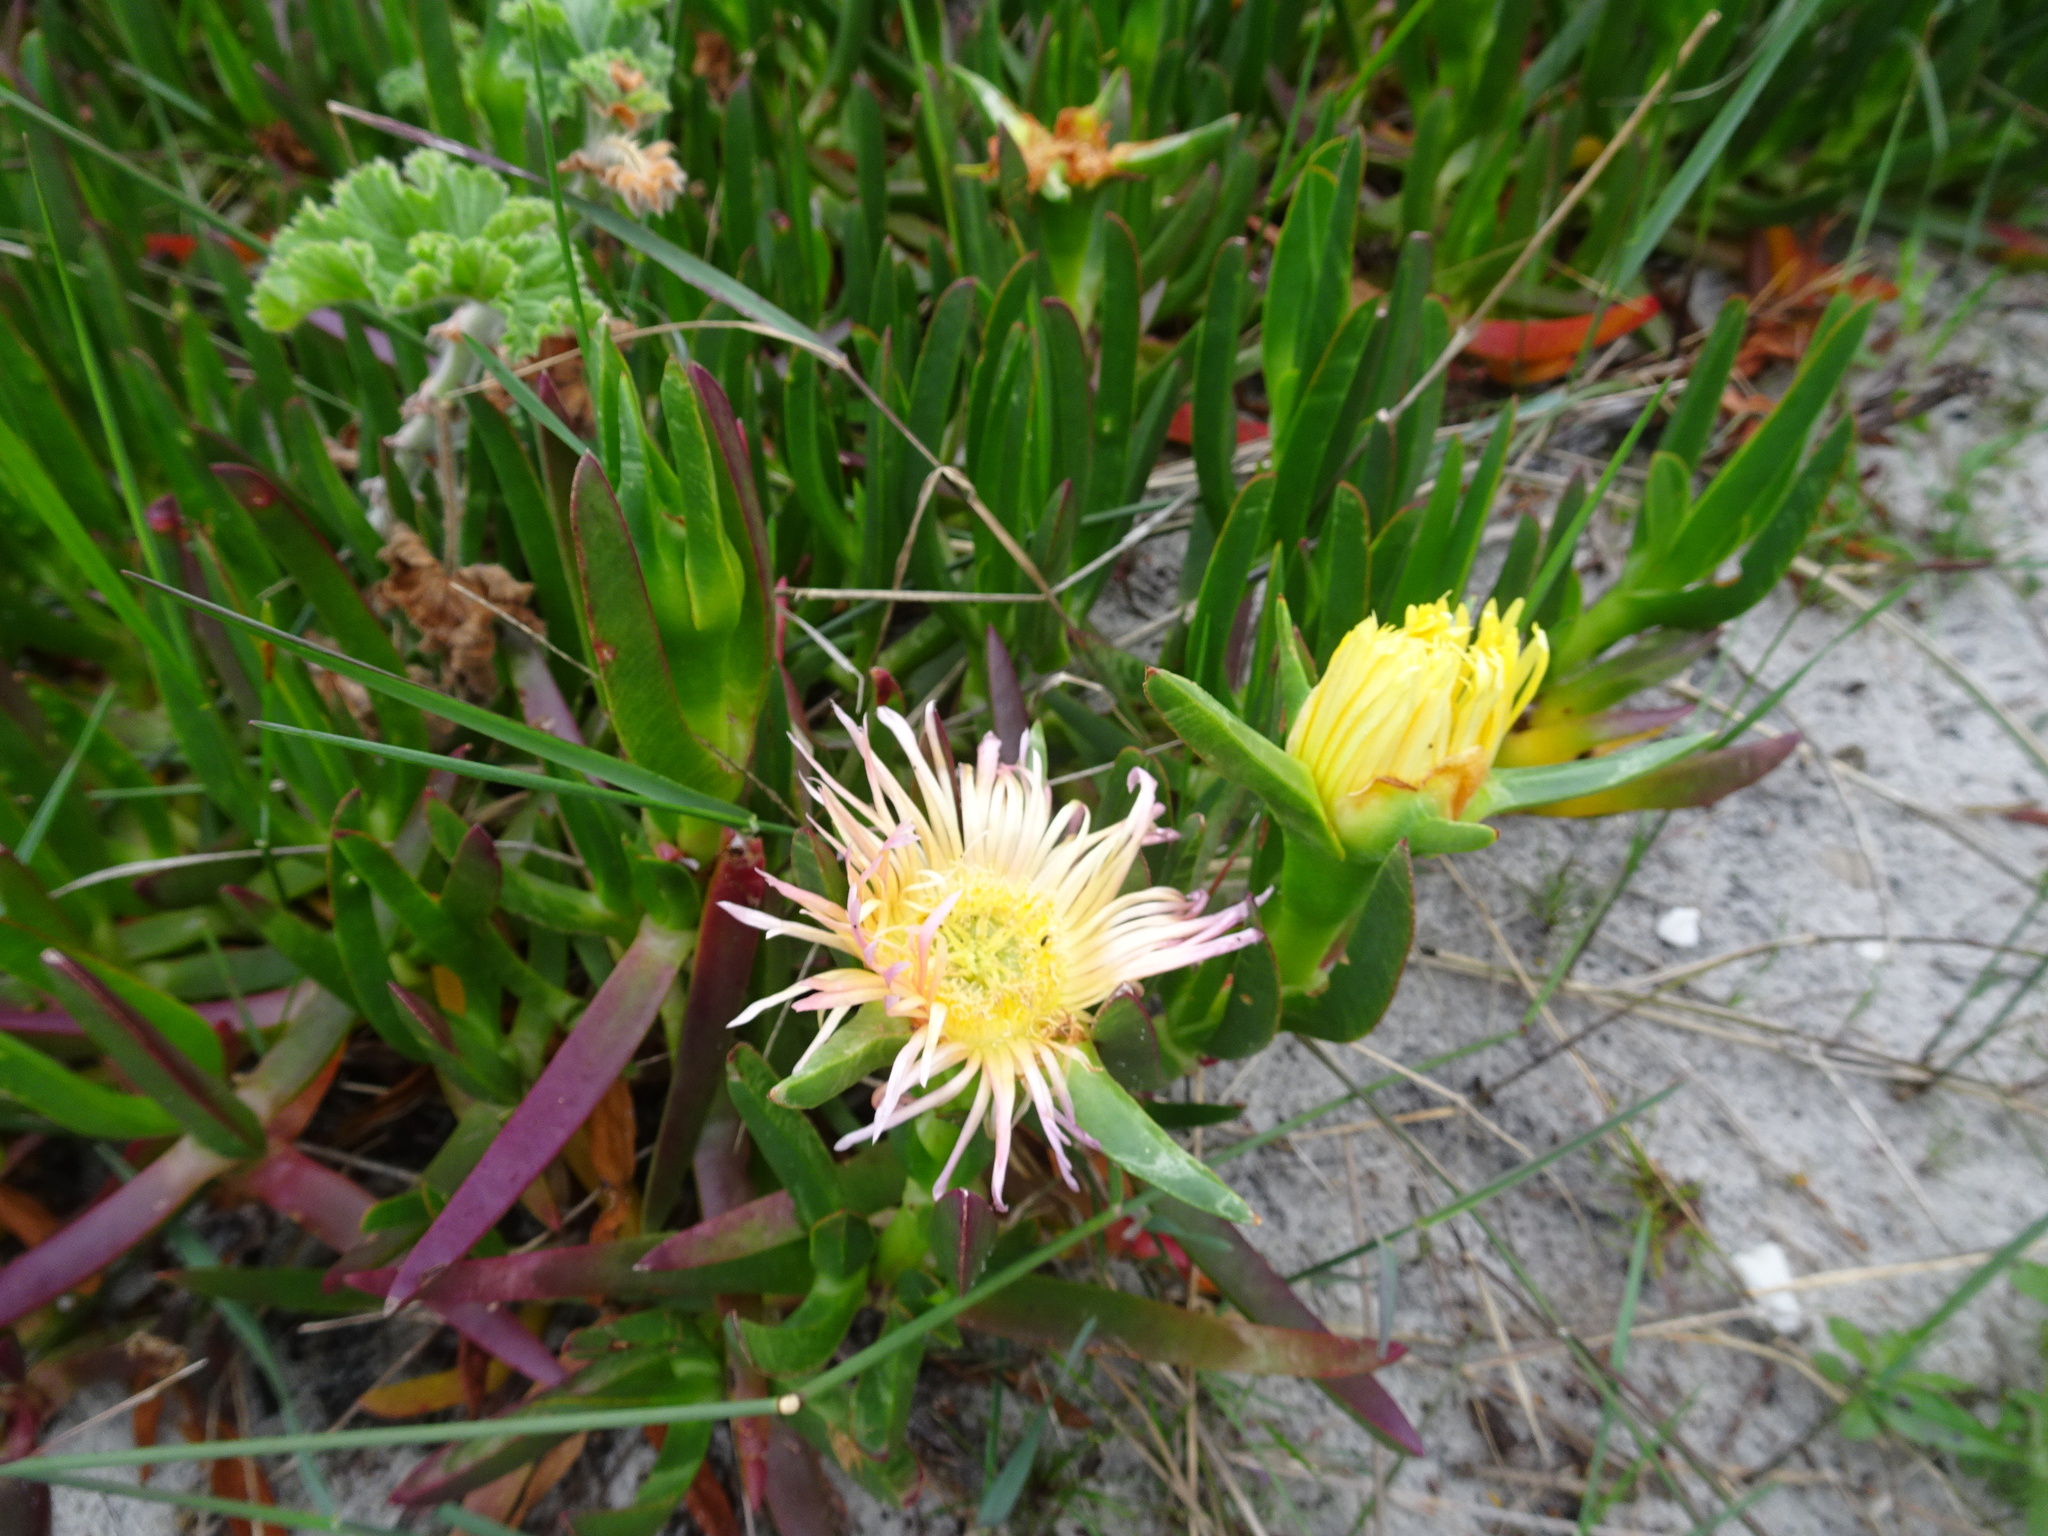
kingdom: Plantae
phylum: Tracheophyta
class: Magnoliopsida
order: Caryophyllales
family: Aizoaceae
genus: Carpobrotus
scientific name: Carpobrotus edulis
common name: Hottentot-fig
